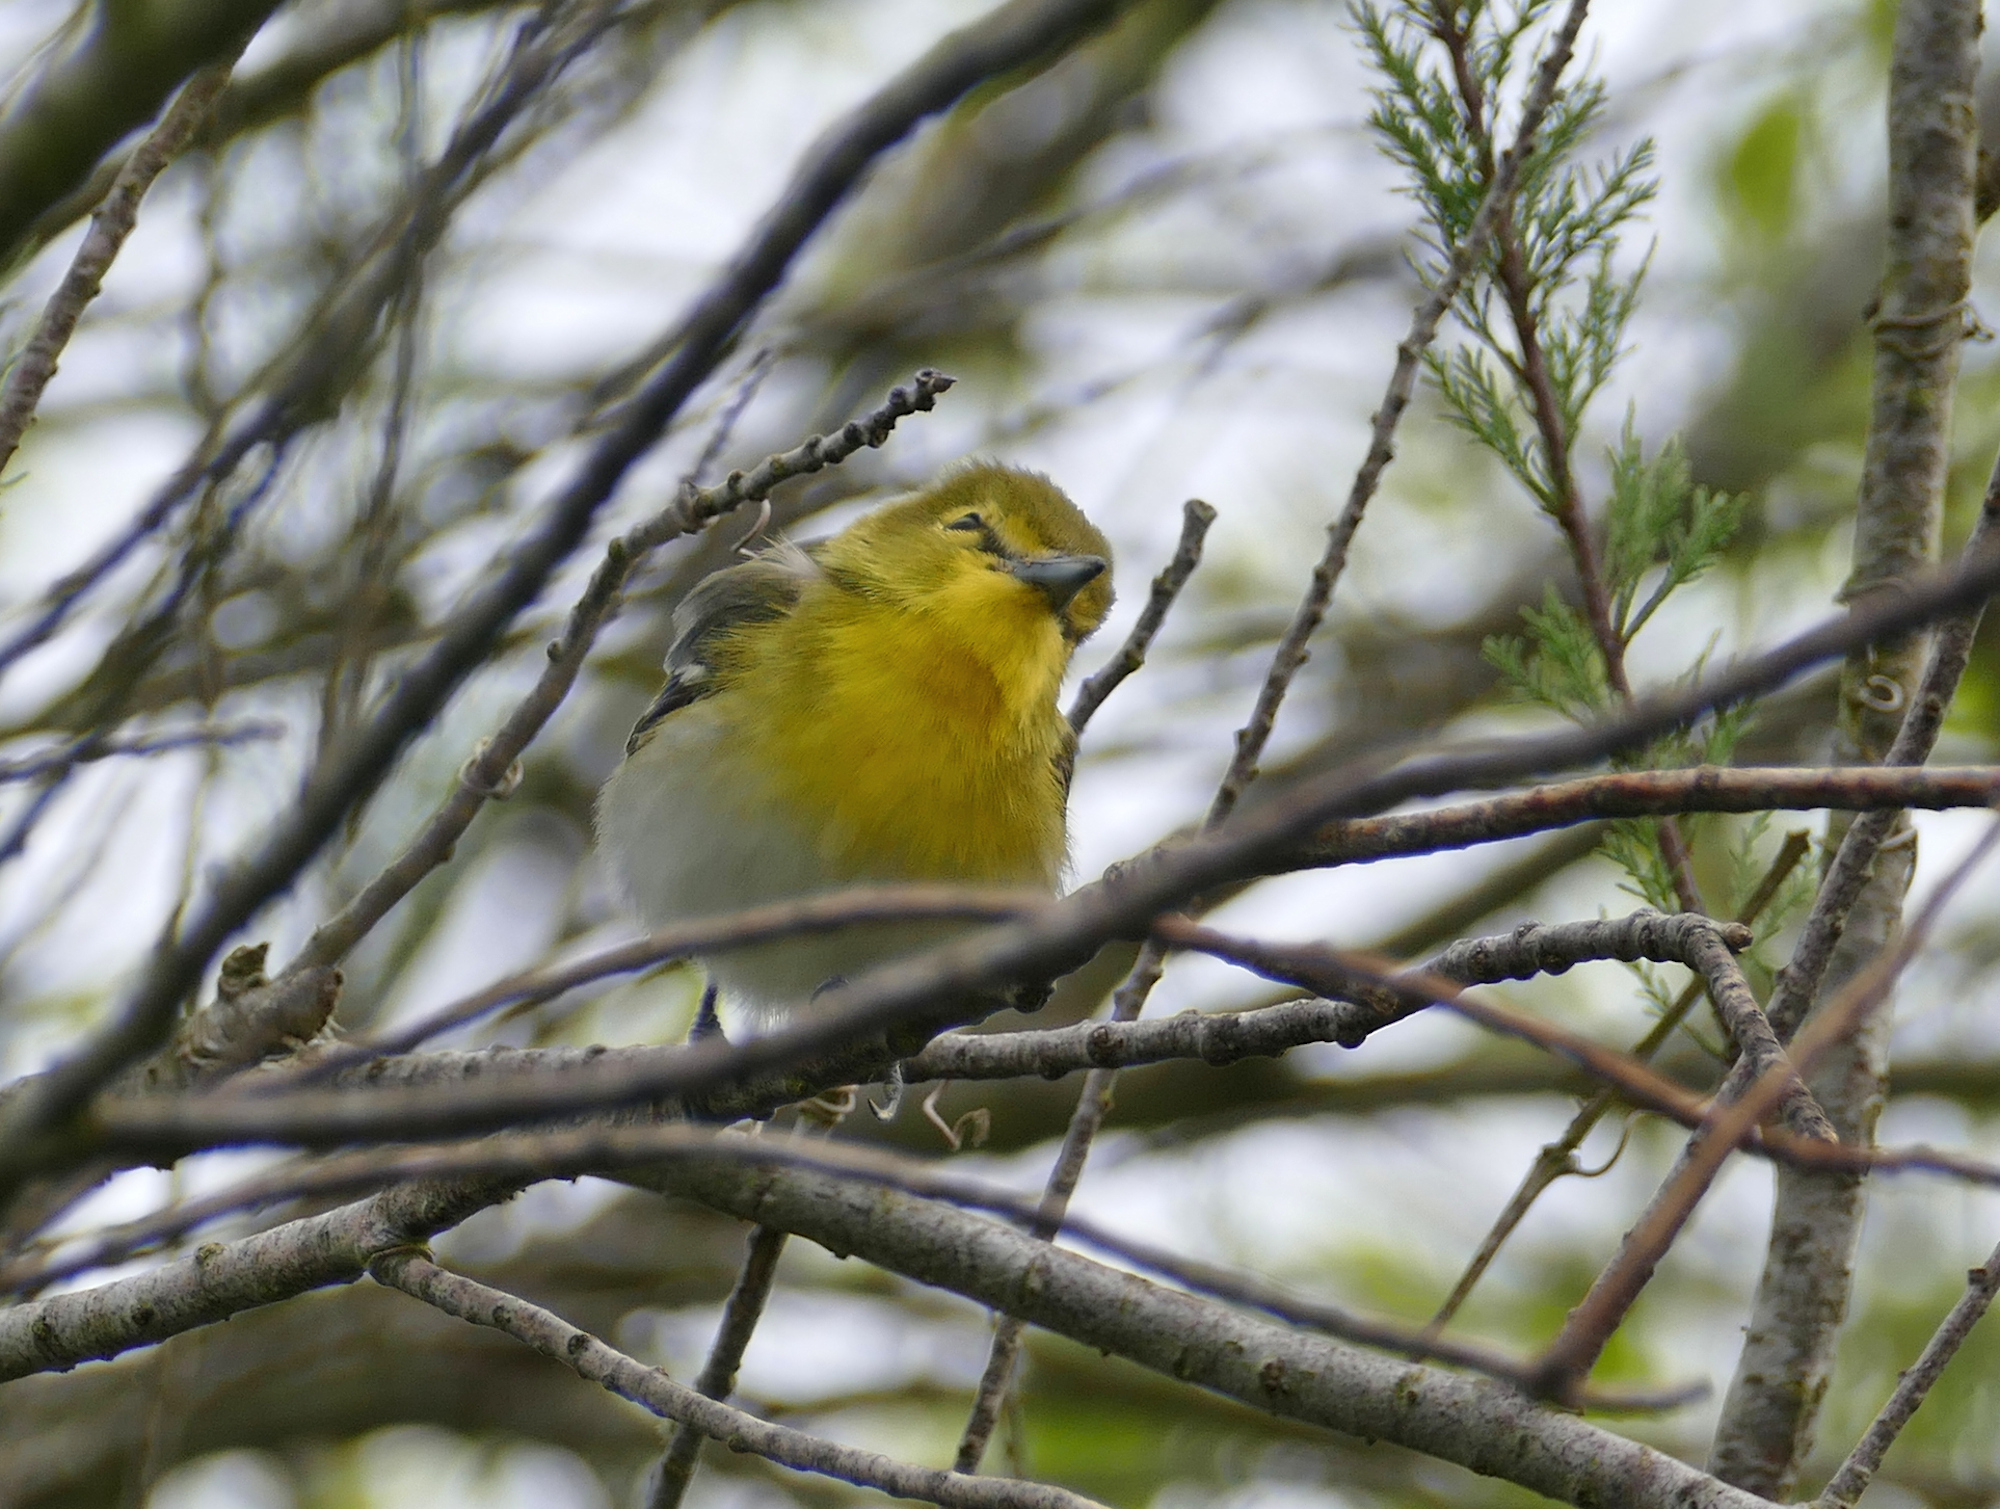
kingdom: Animalia
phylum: Chordata
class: Aves
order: Passeriformes
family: Vireonidae
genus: Vireo
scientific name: Vireo flavifrons
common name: Yellow-throated vireo
